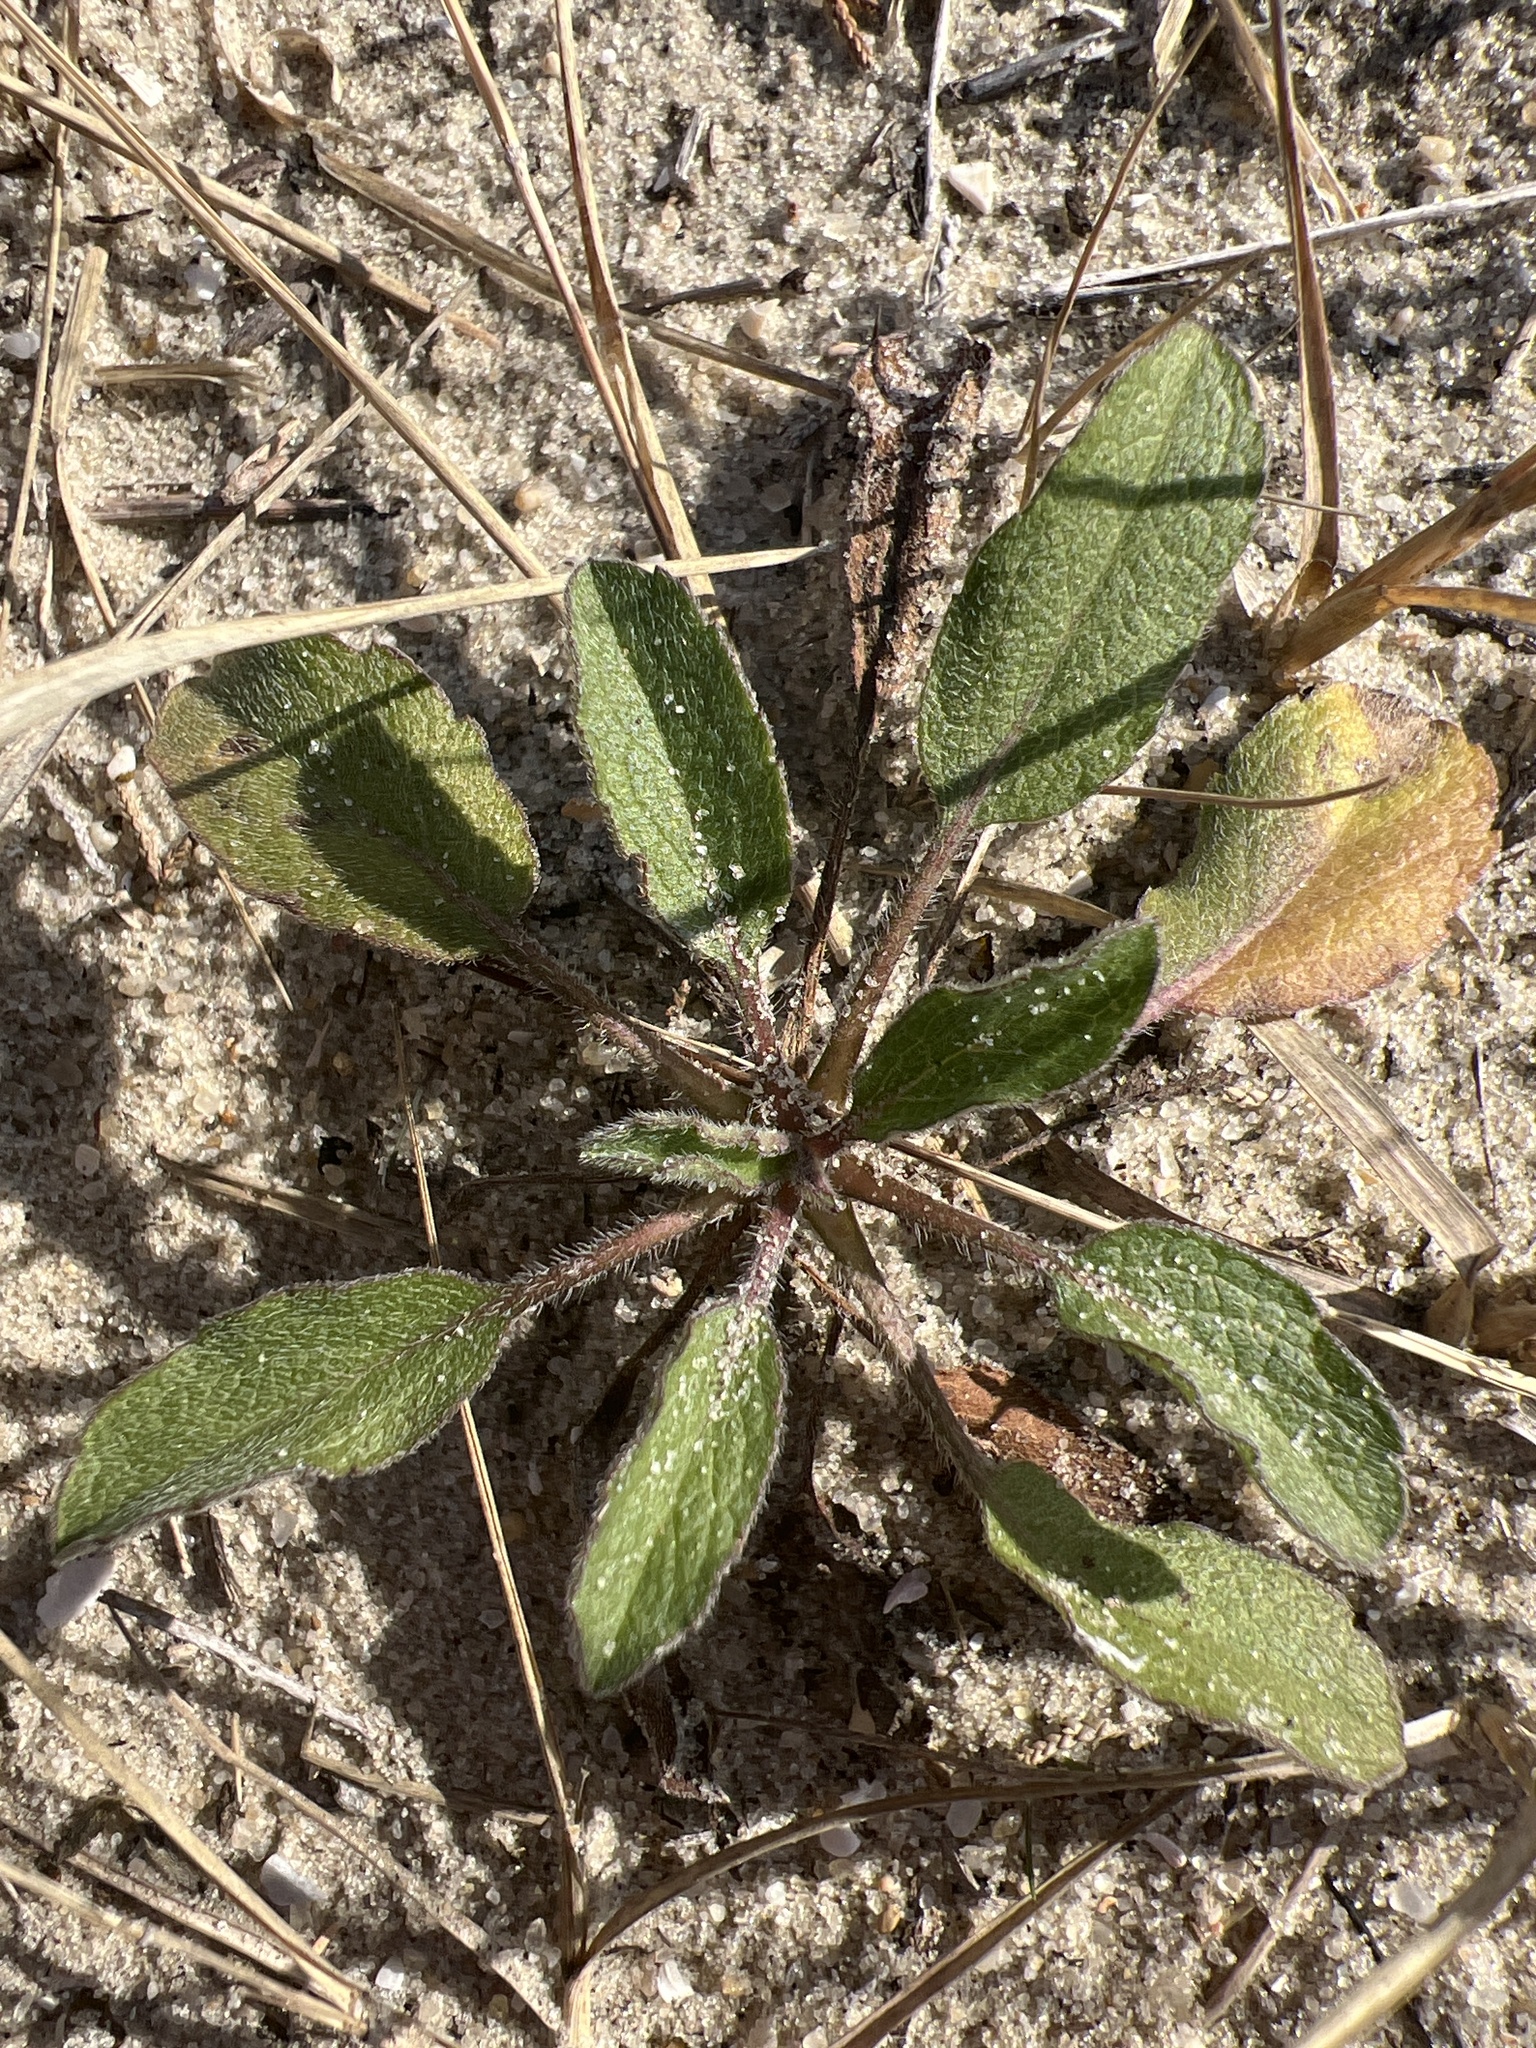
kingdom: Plantae
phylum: Tracheophyta
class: Magnoliopsida
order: Asterales
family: Asteraceae
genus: Heterotheca
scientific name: Heterotheca subaxillaris
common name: Camphorweed
